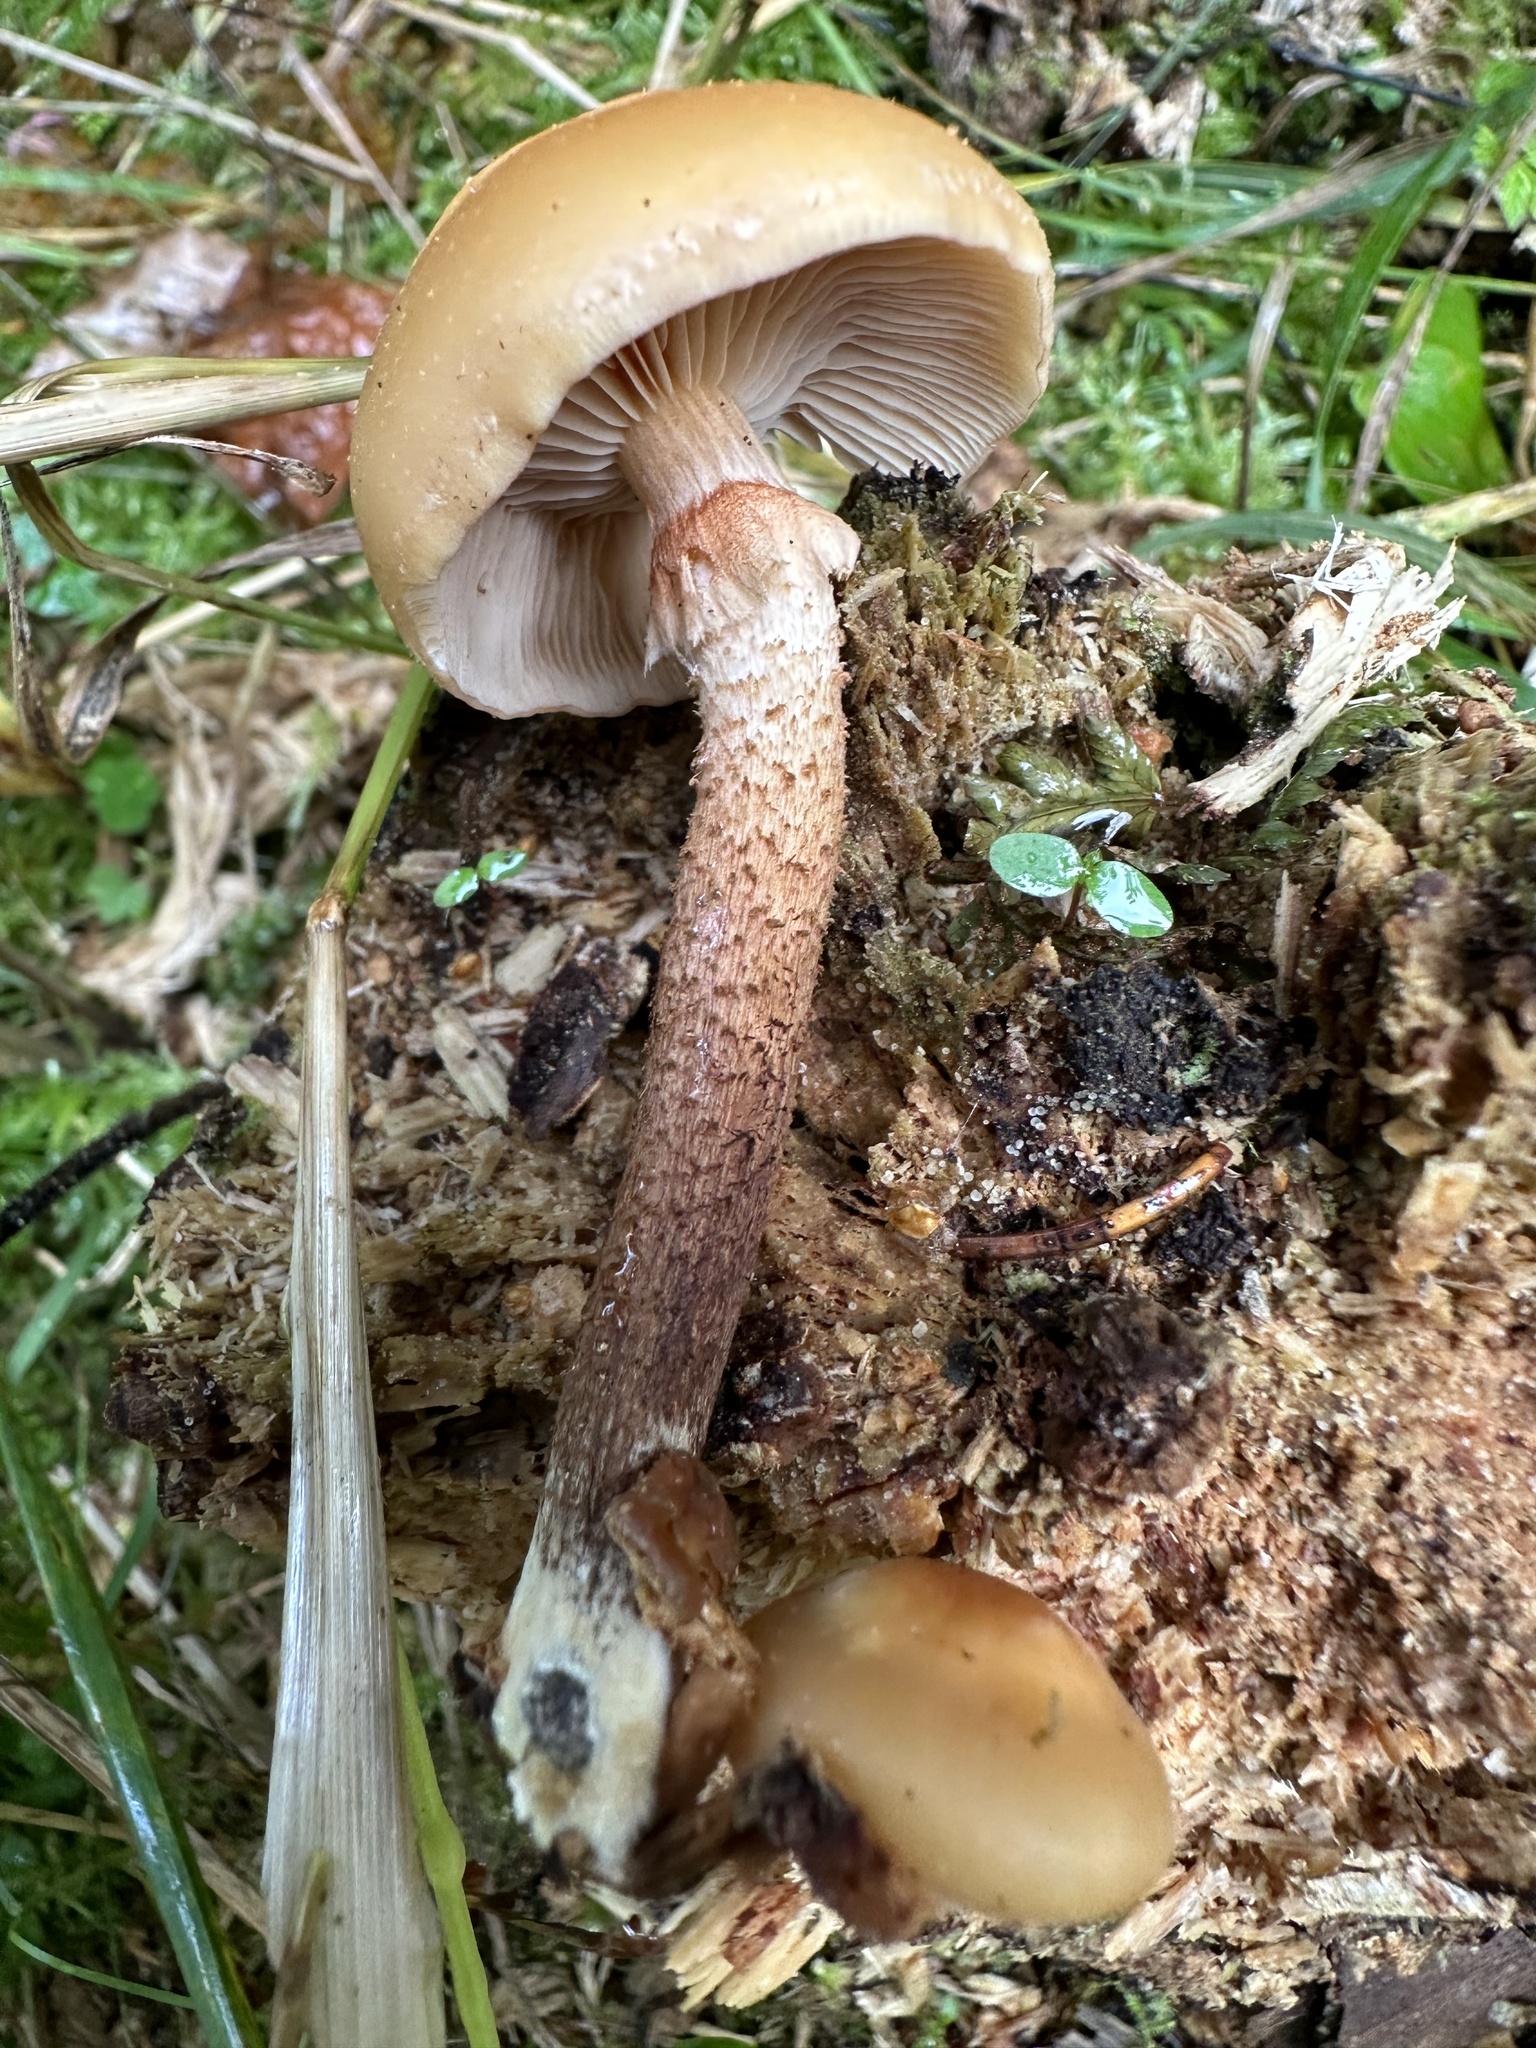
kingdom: Fungi
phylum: Basidiomycota
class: Agaricomycetes
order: Agaricales
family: Strophariaceae
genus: Kuehneromyces
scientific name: Kuehneromyces mutabilis
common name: Sheathed woodtuft
